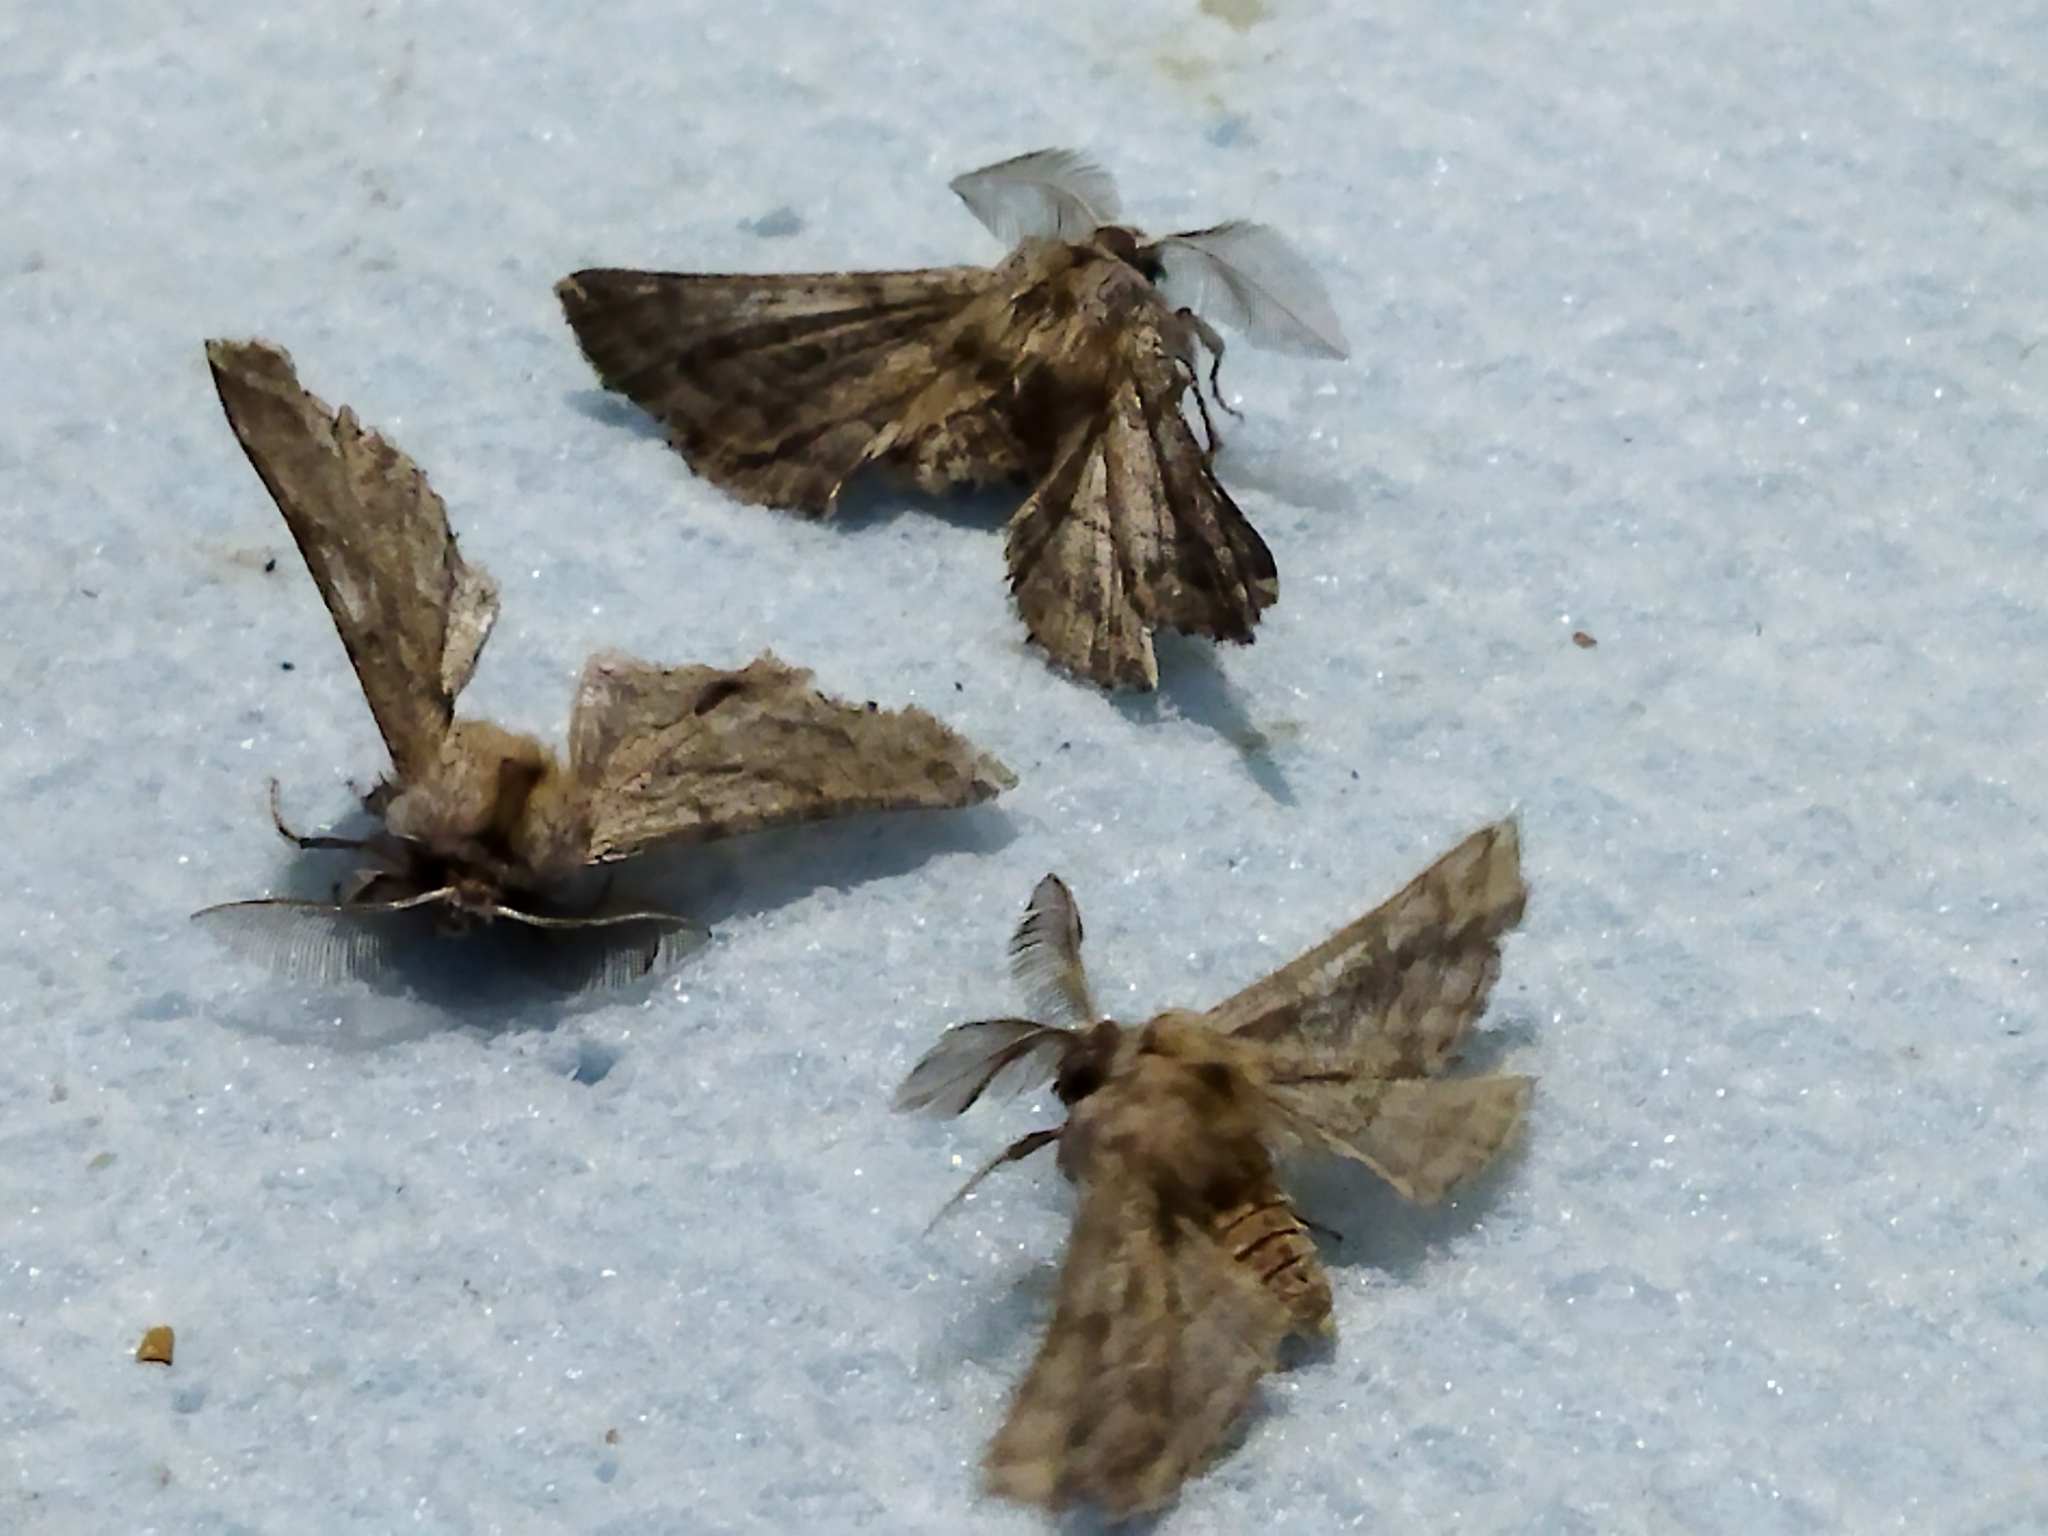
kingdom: Animalia
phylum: Arthropoda
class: Insecta
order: Lepidoptera
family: Geometridae
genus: Apochima
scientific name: Apochima flabellaria
